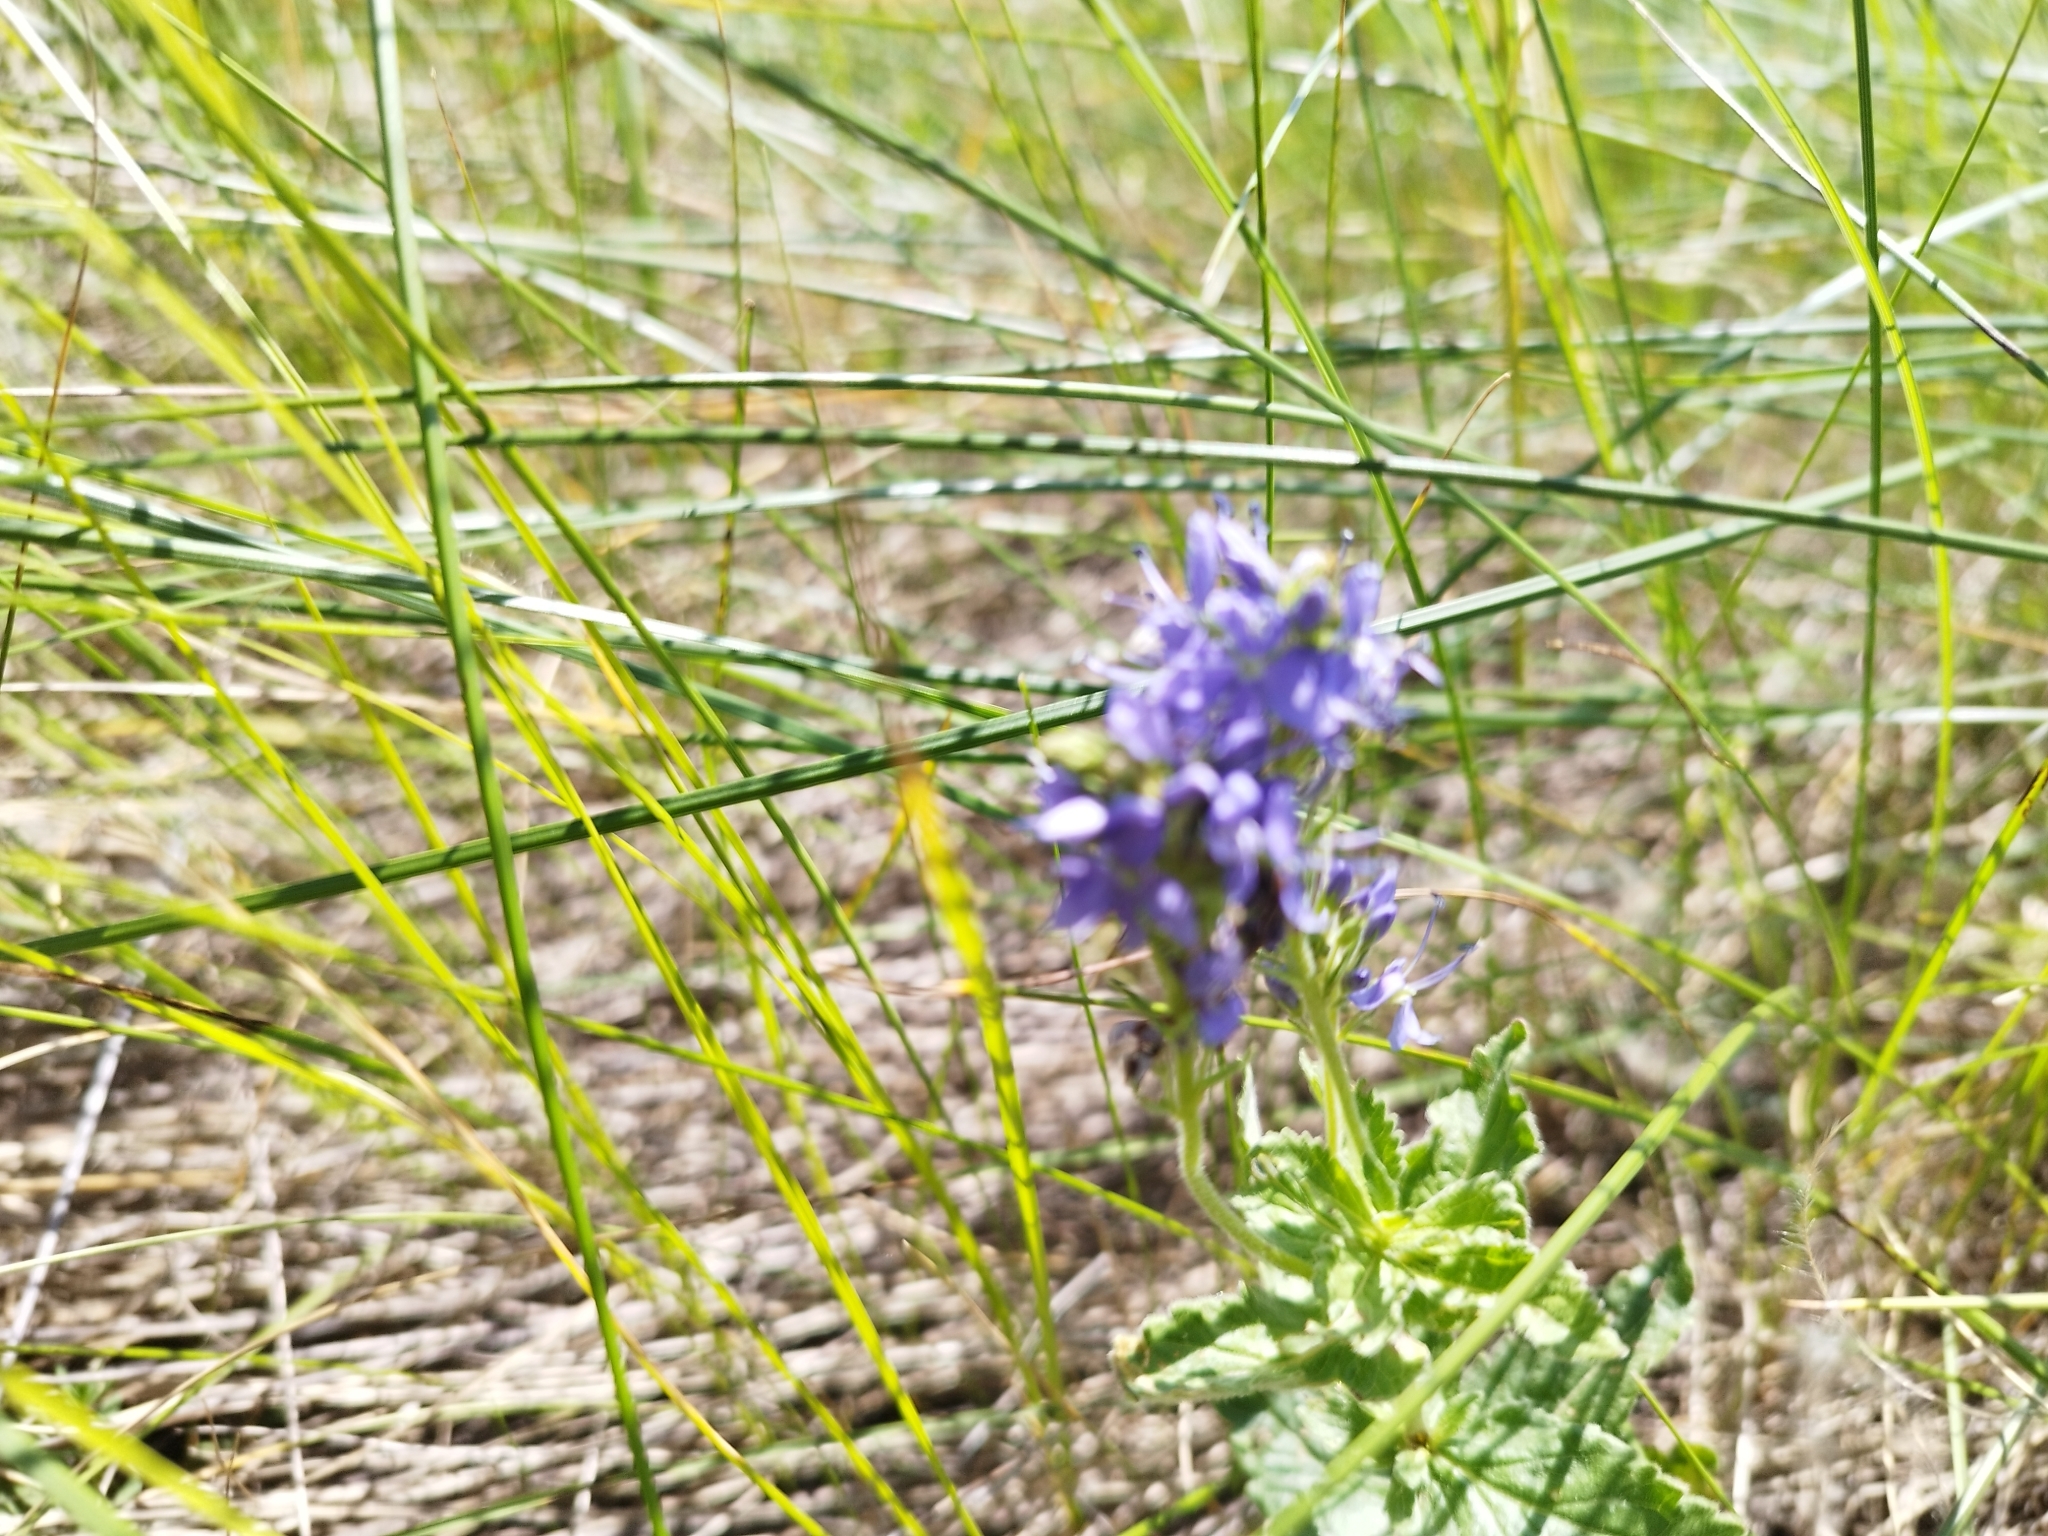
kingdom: Plantae
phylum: Tracheophyta
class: Magnoliopsida
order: Lamiales
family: Plantaginaceae
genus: Veronica
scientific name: Veronica teucrium
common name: Large speedwell
